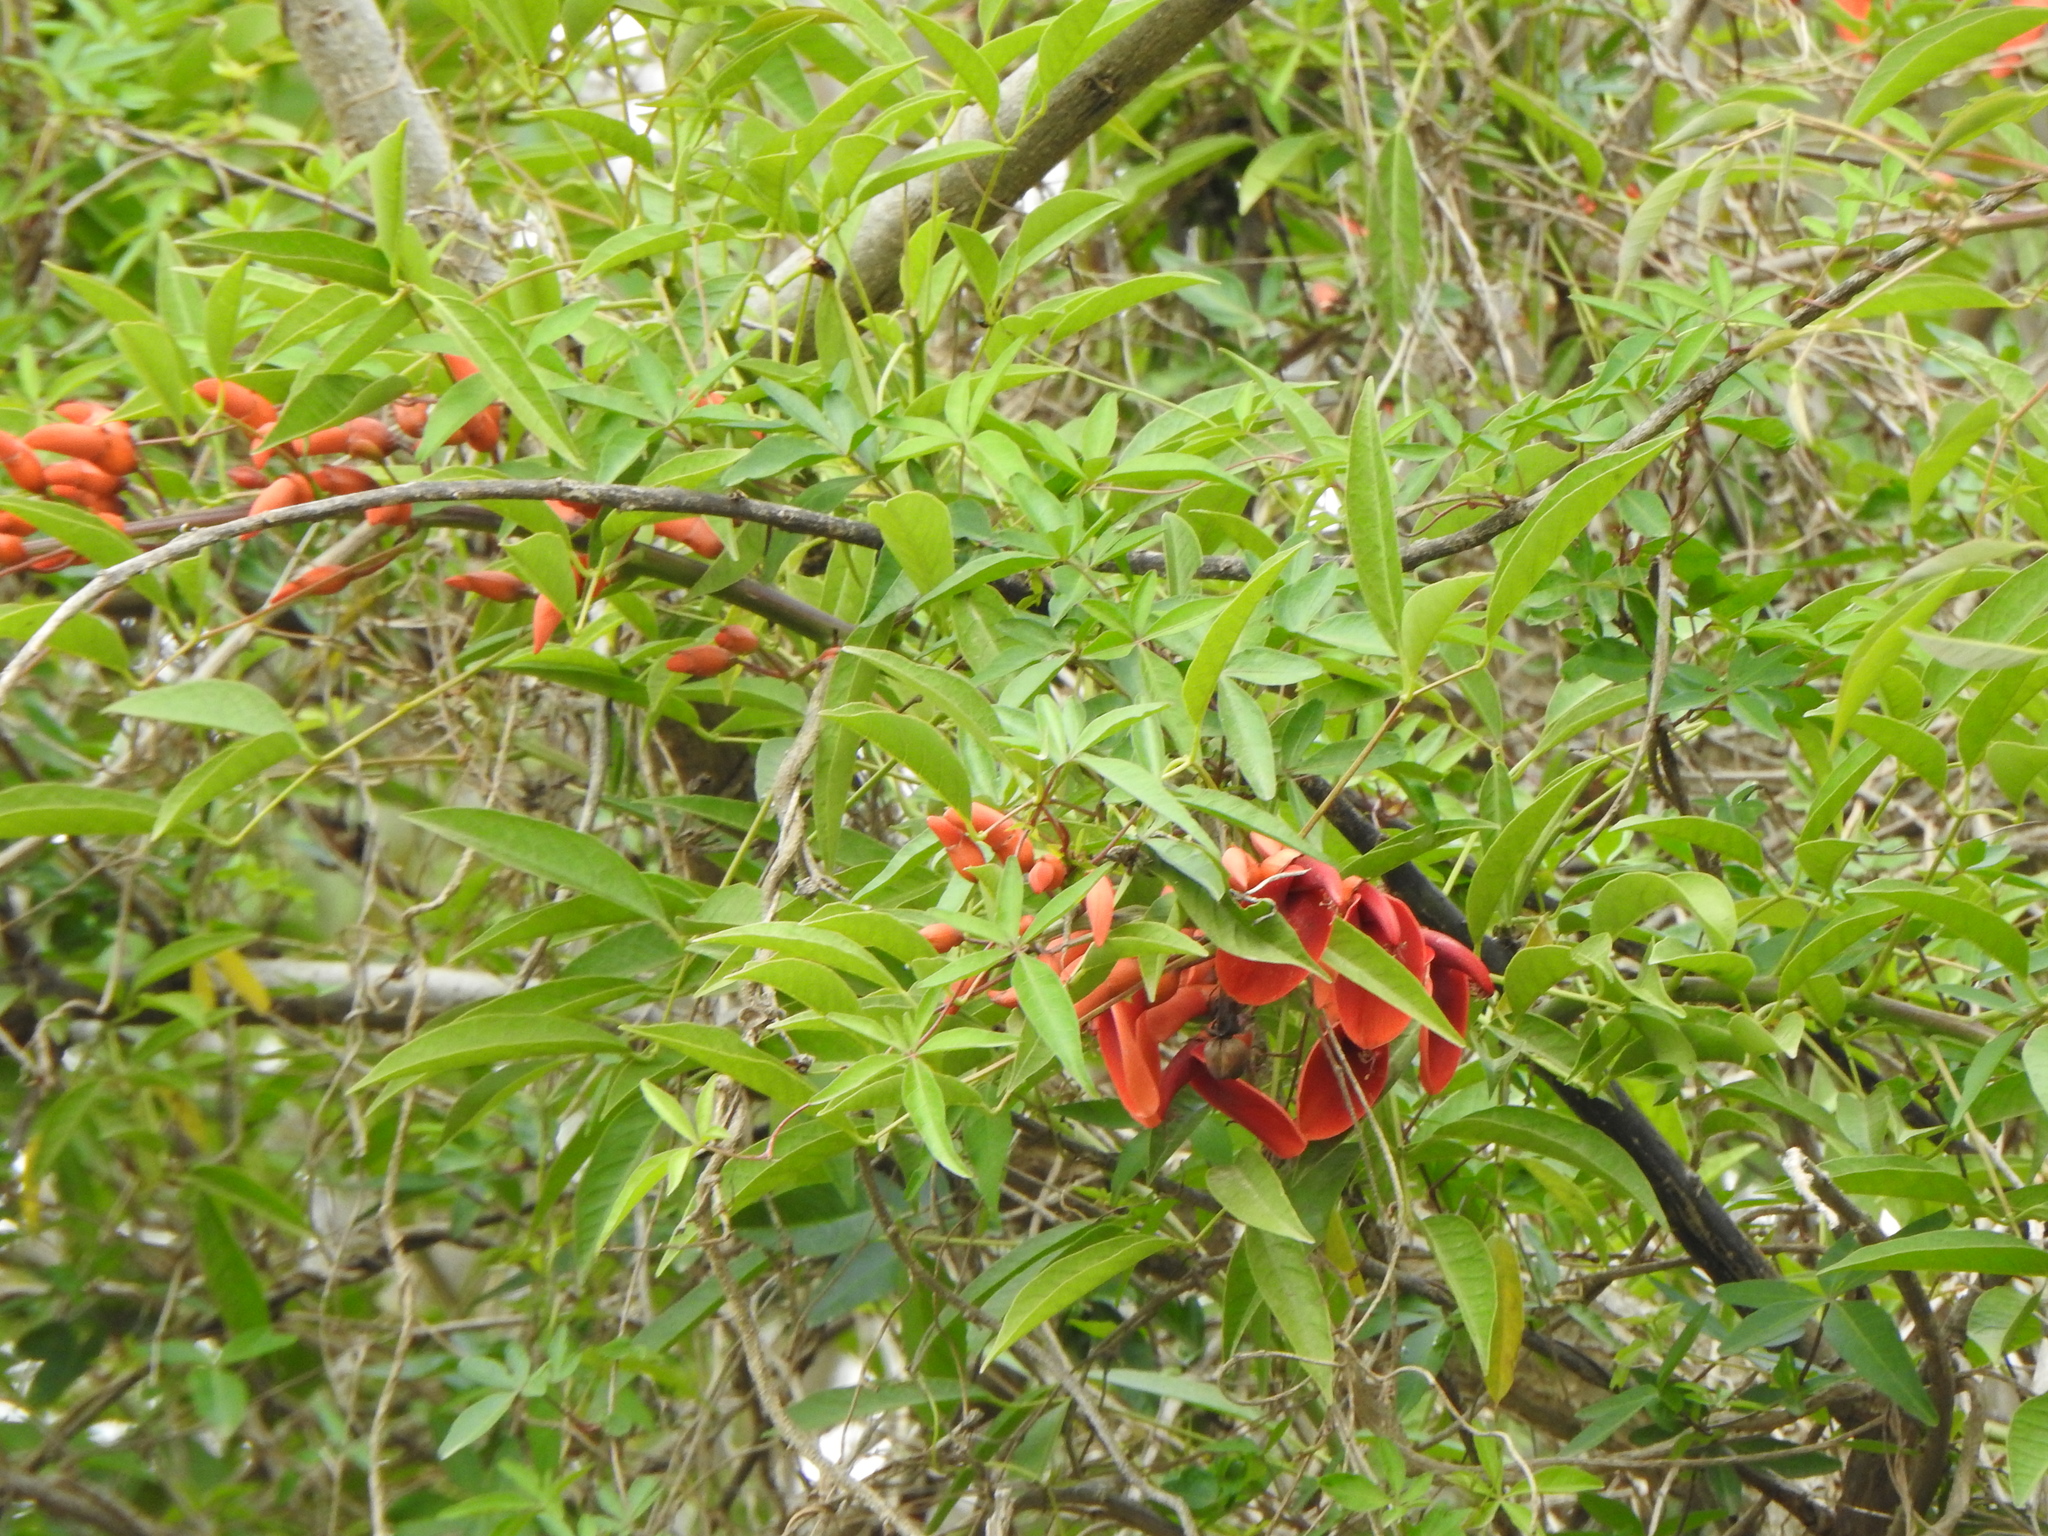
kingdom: Plantae
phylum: Tracheophyta
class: Magnoliopsida
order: Fabales
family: Fabaceae
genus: Erythrina
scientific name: Erythrina crista-galli
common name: Cockspur coral tree
